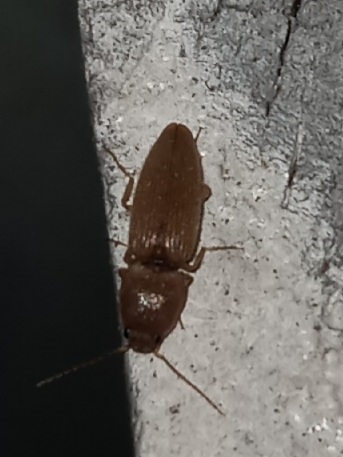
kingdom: Animalia
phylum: Arthropoda
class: Insecta
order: Coleoptera
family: Elateridae
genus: Monocrepidius
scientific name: Monocrepidius scissus
